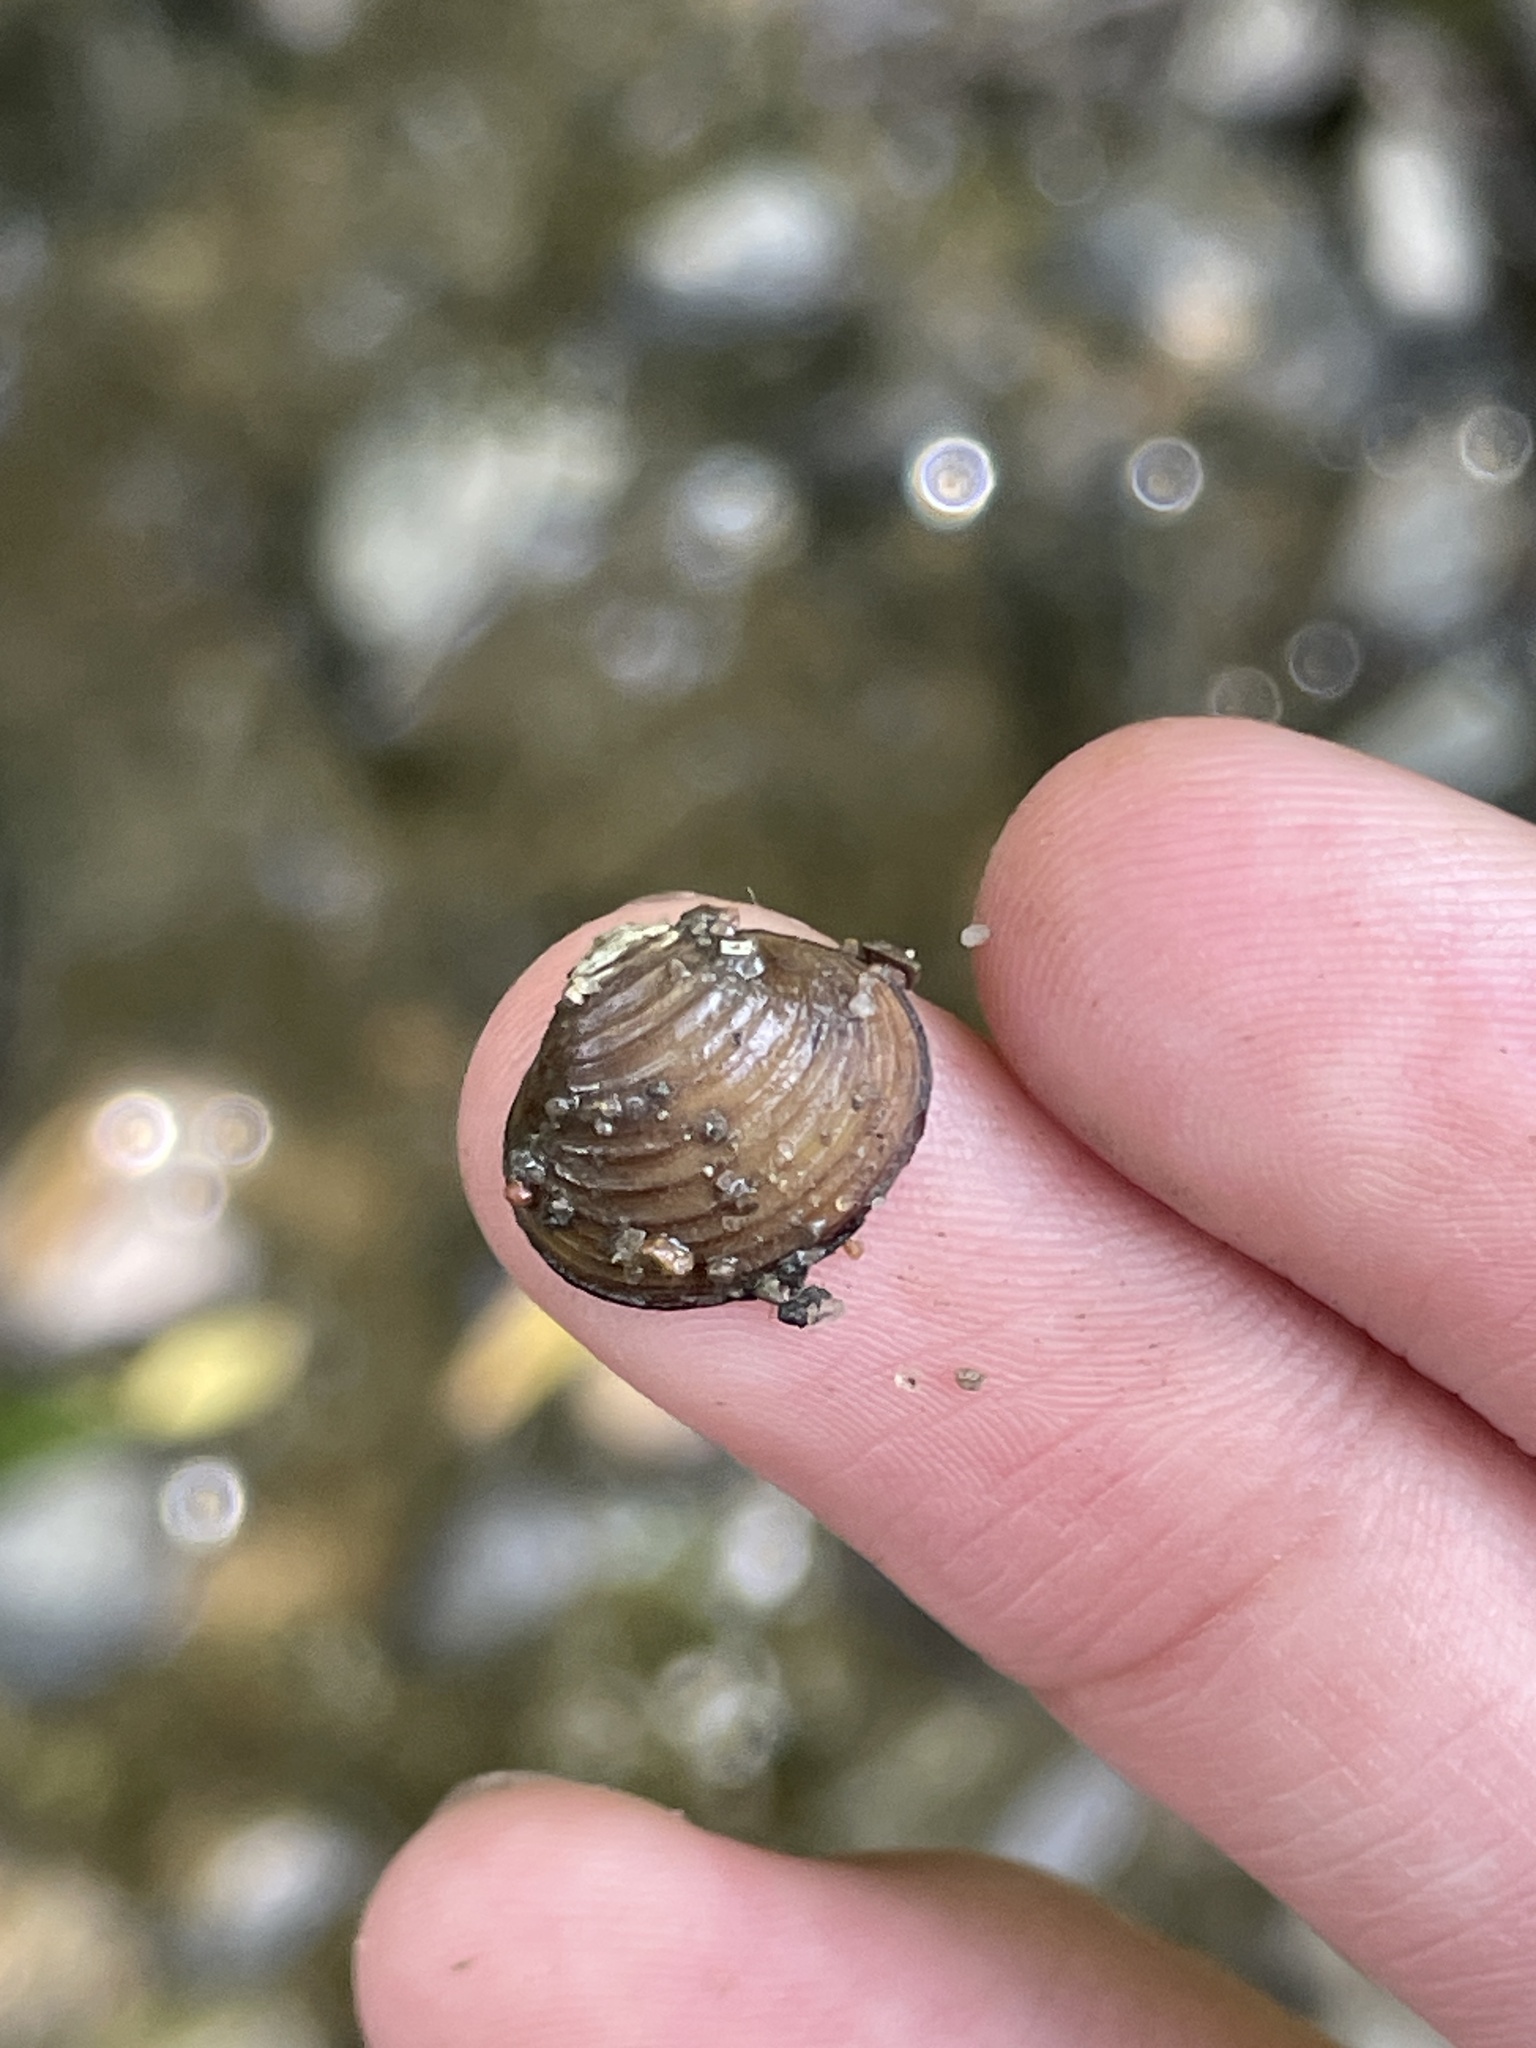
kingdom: Animalia
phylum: Mollusca
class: Bivalvia
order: Venerida
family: Cyrenidae
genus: Corbicula
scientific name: Corbicula fluminea
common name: Asian clam
